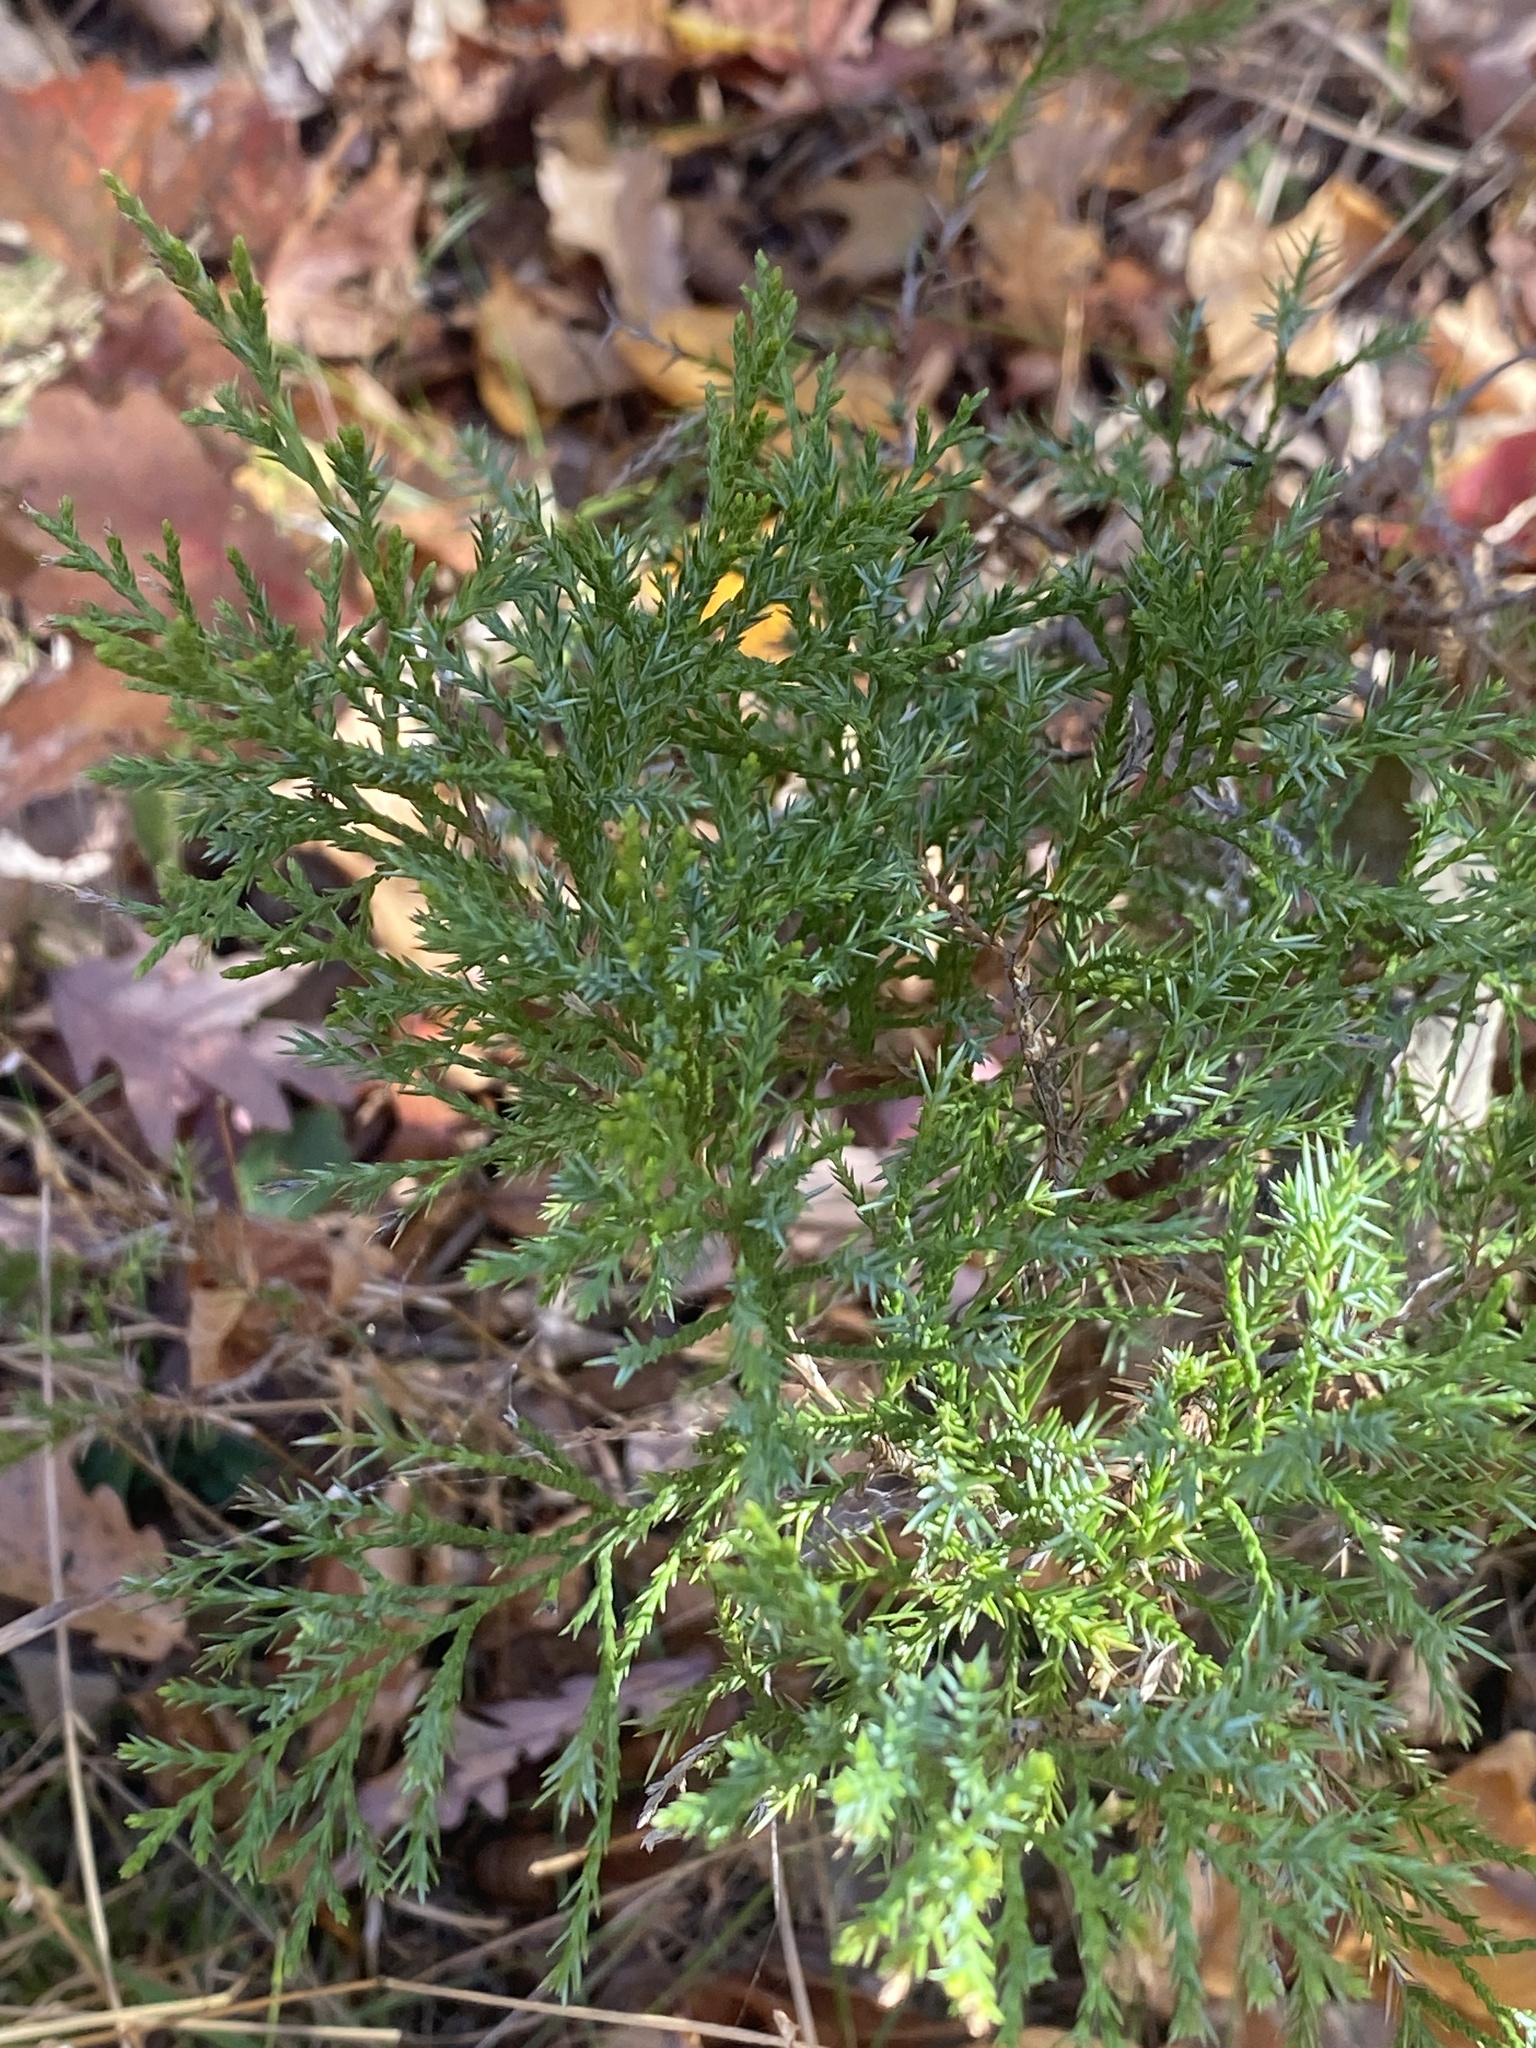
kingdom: Plantae
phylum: Tracheophyta
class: Pinopsida
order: Pinales
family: Cupressaceae
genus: Juniperus
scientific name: Juniperus virginiana
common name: Red juniper
